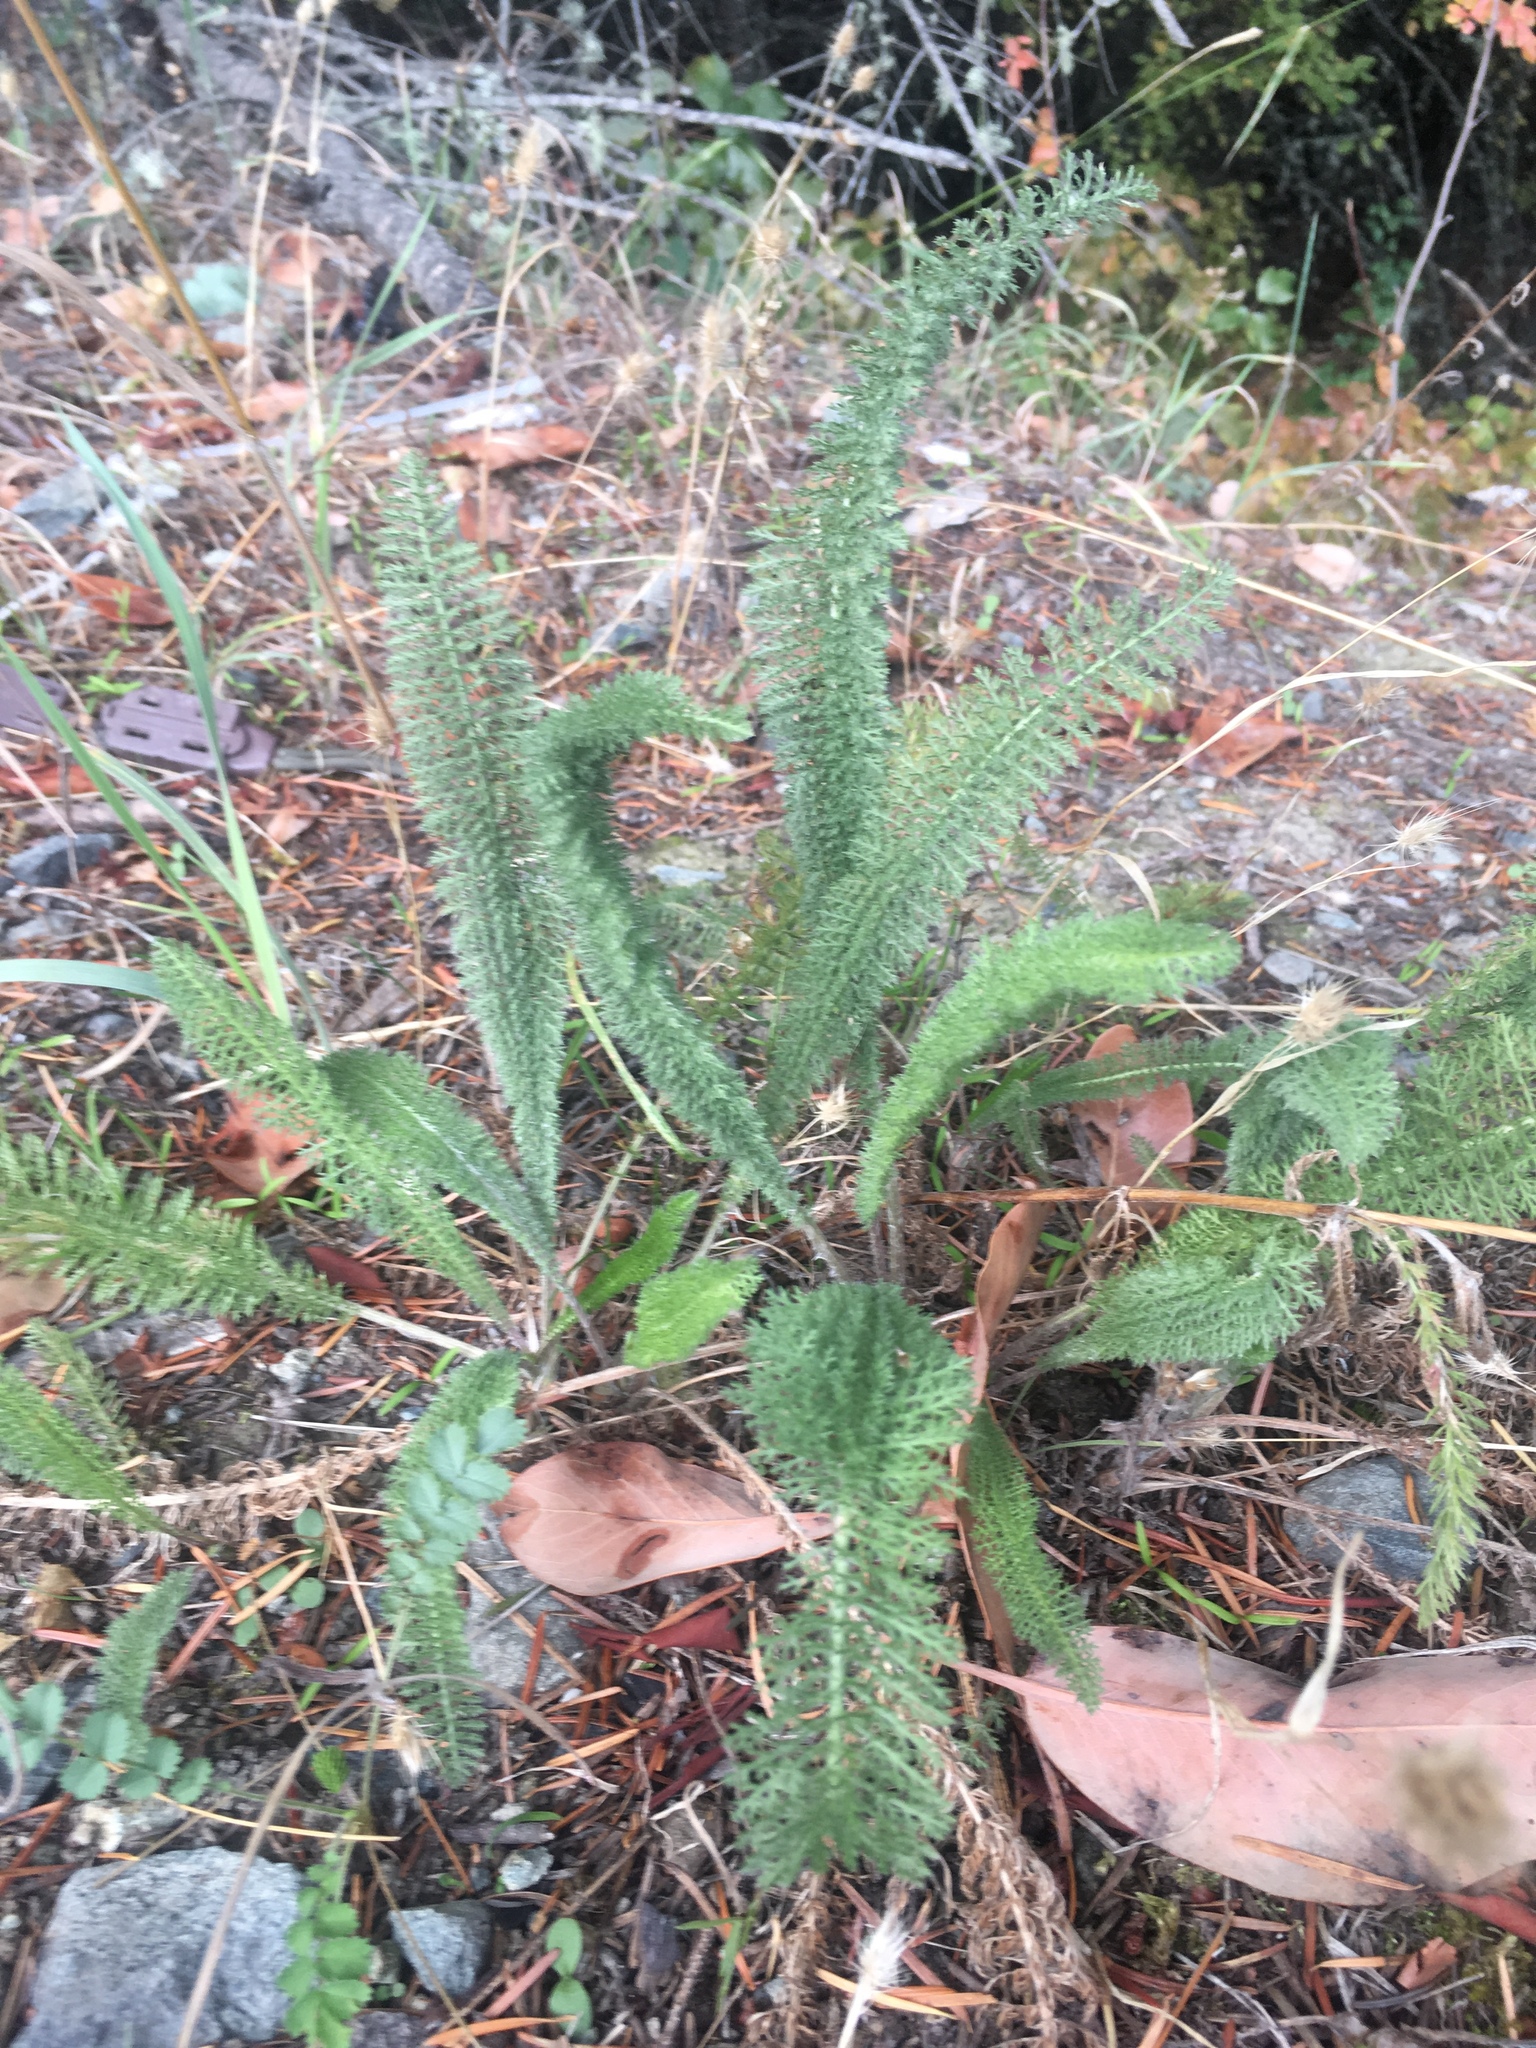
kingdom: Plantae
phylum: Tracheophyta
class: Magnoliopsida
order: Asterales
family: Asteraceae
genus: Achillea
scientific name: Achillea millefolium
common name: Yarrow
